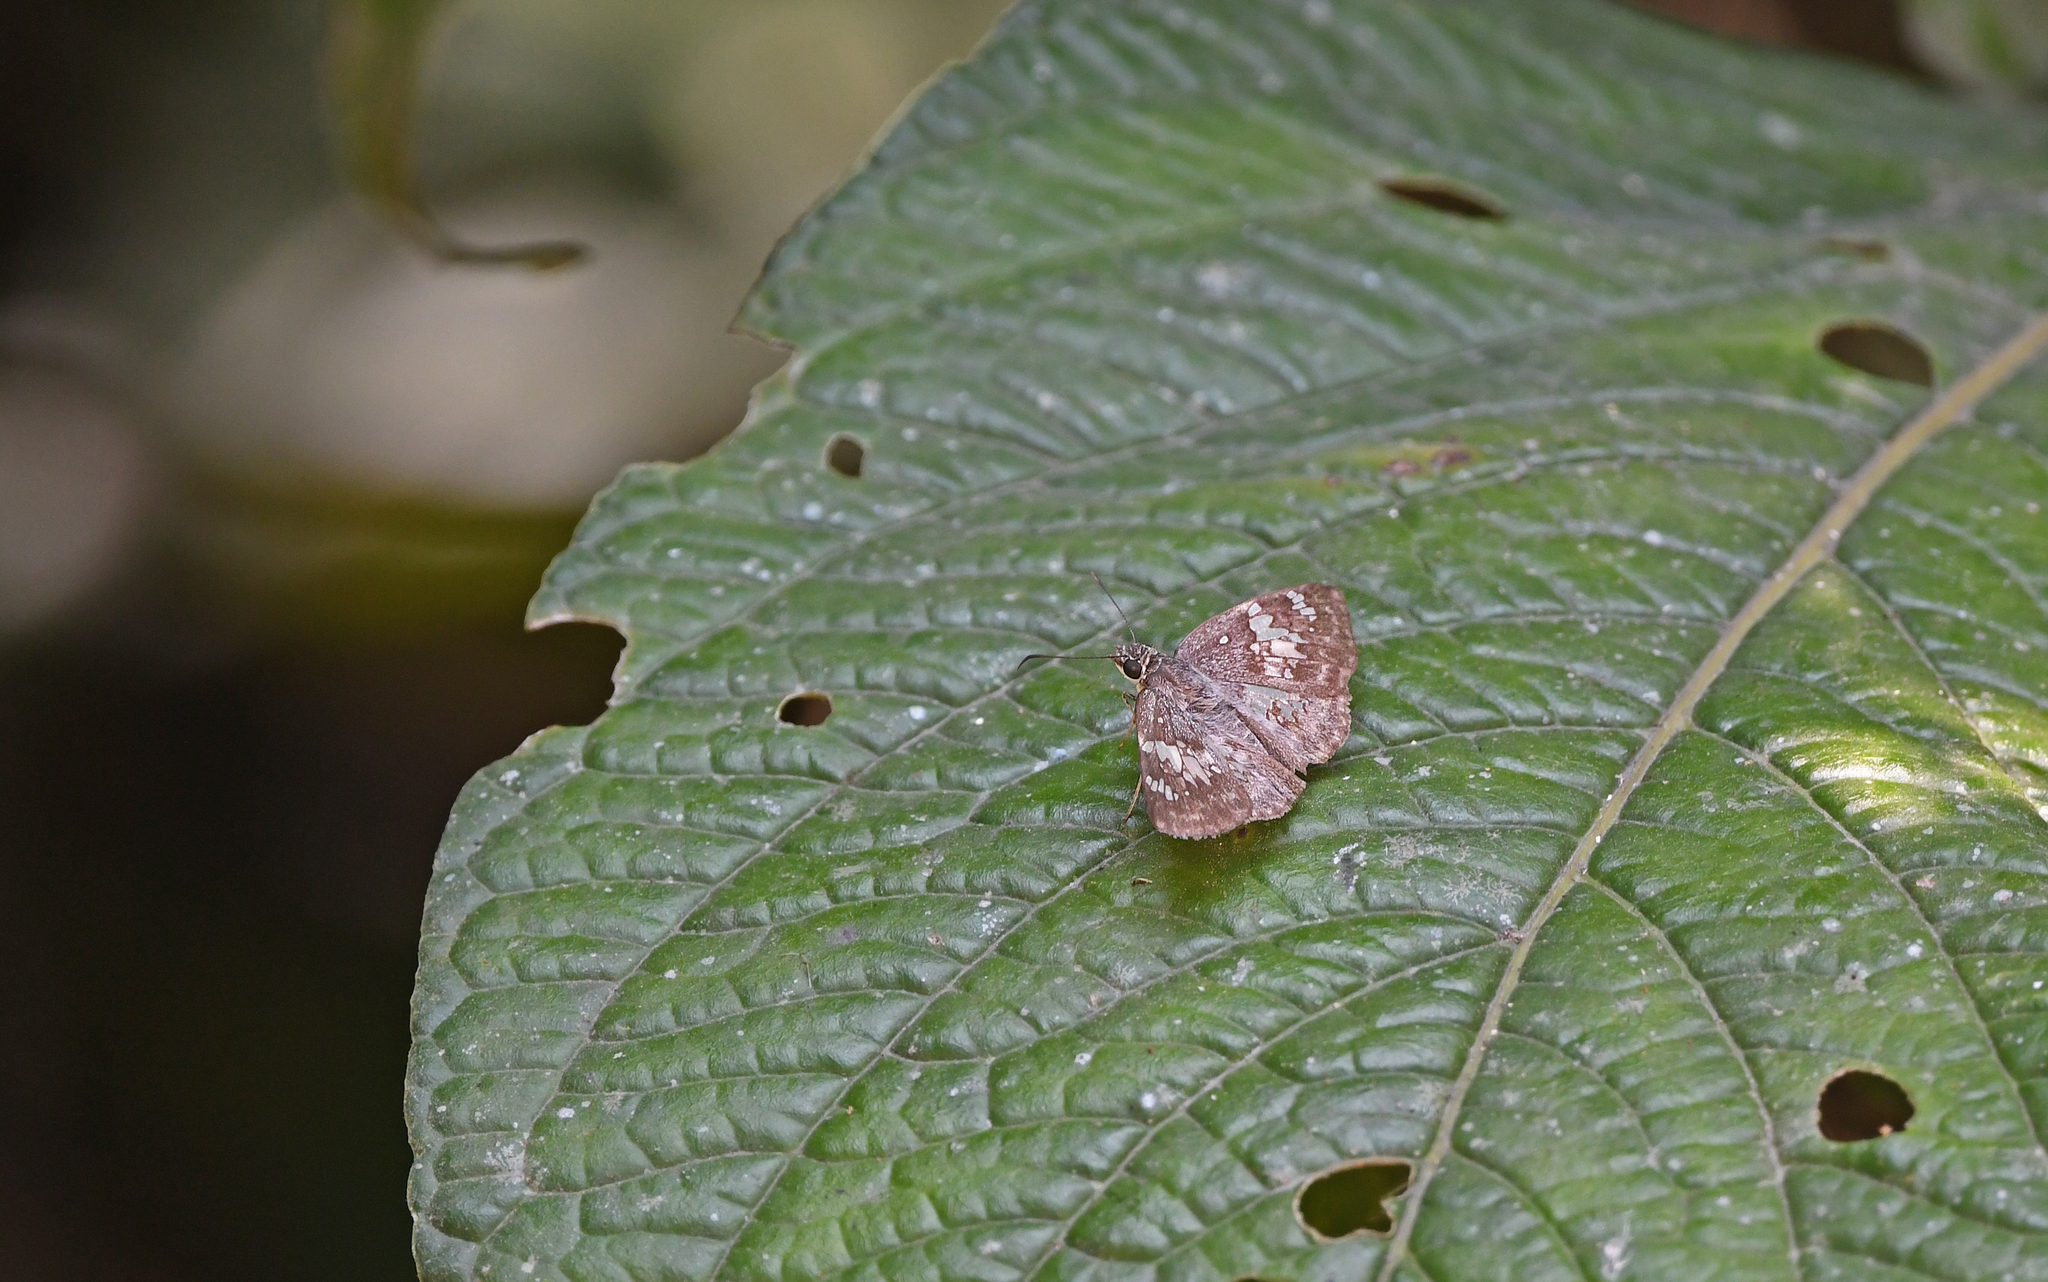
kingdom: Animalia
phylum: Arthropoda
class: Insecta
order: Lepidoptera
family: Hesperiidae
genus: Xenophanes
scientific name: Xenophanes tryxus
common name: Glassy-winged skipper
